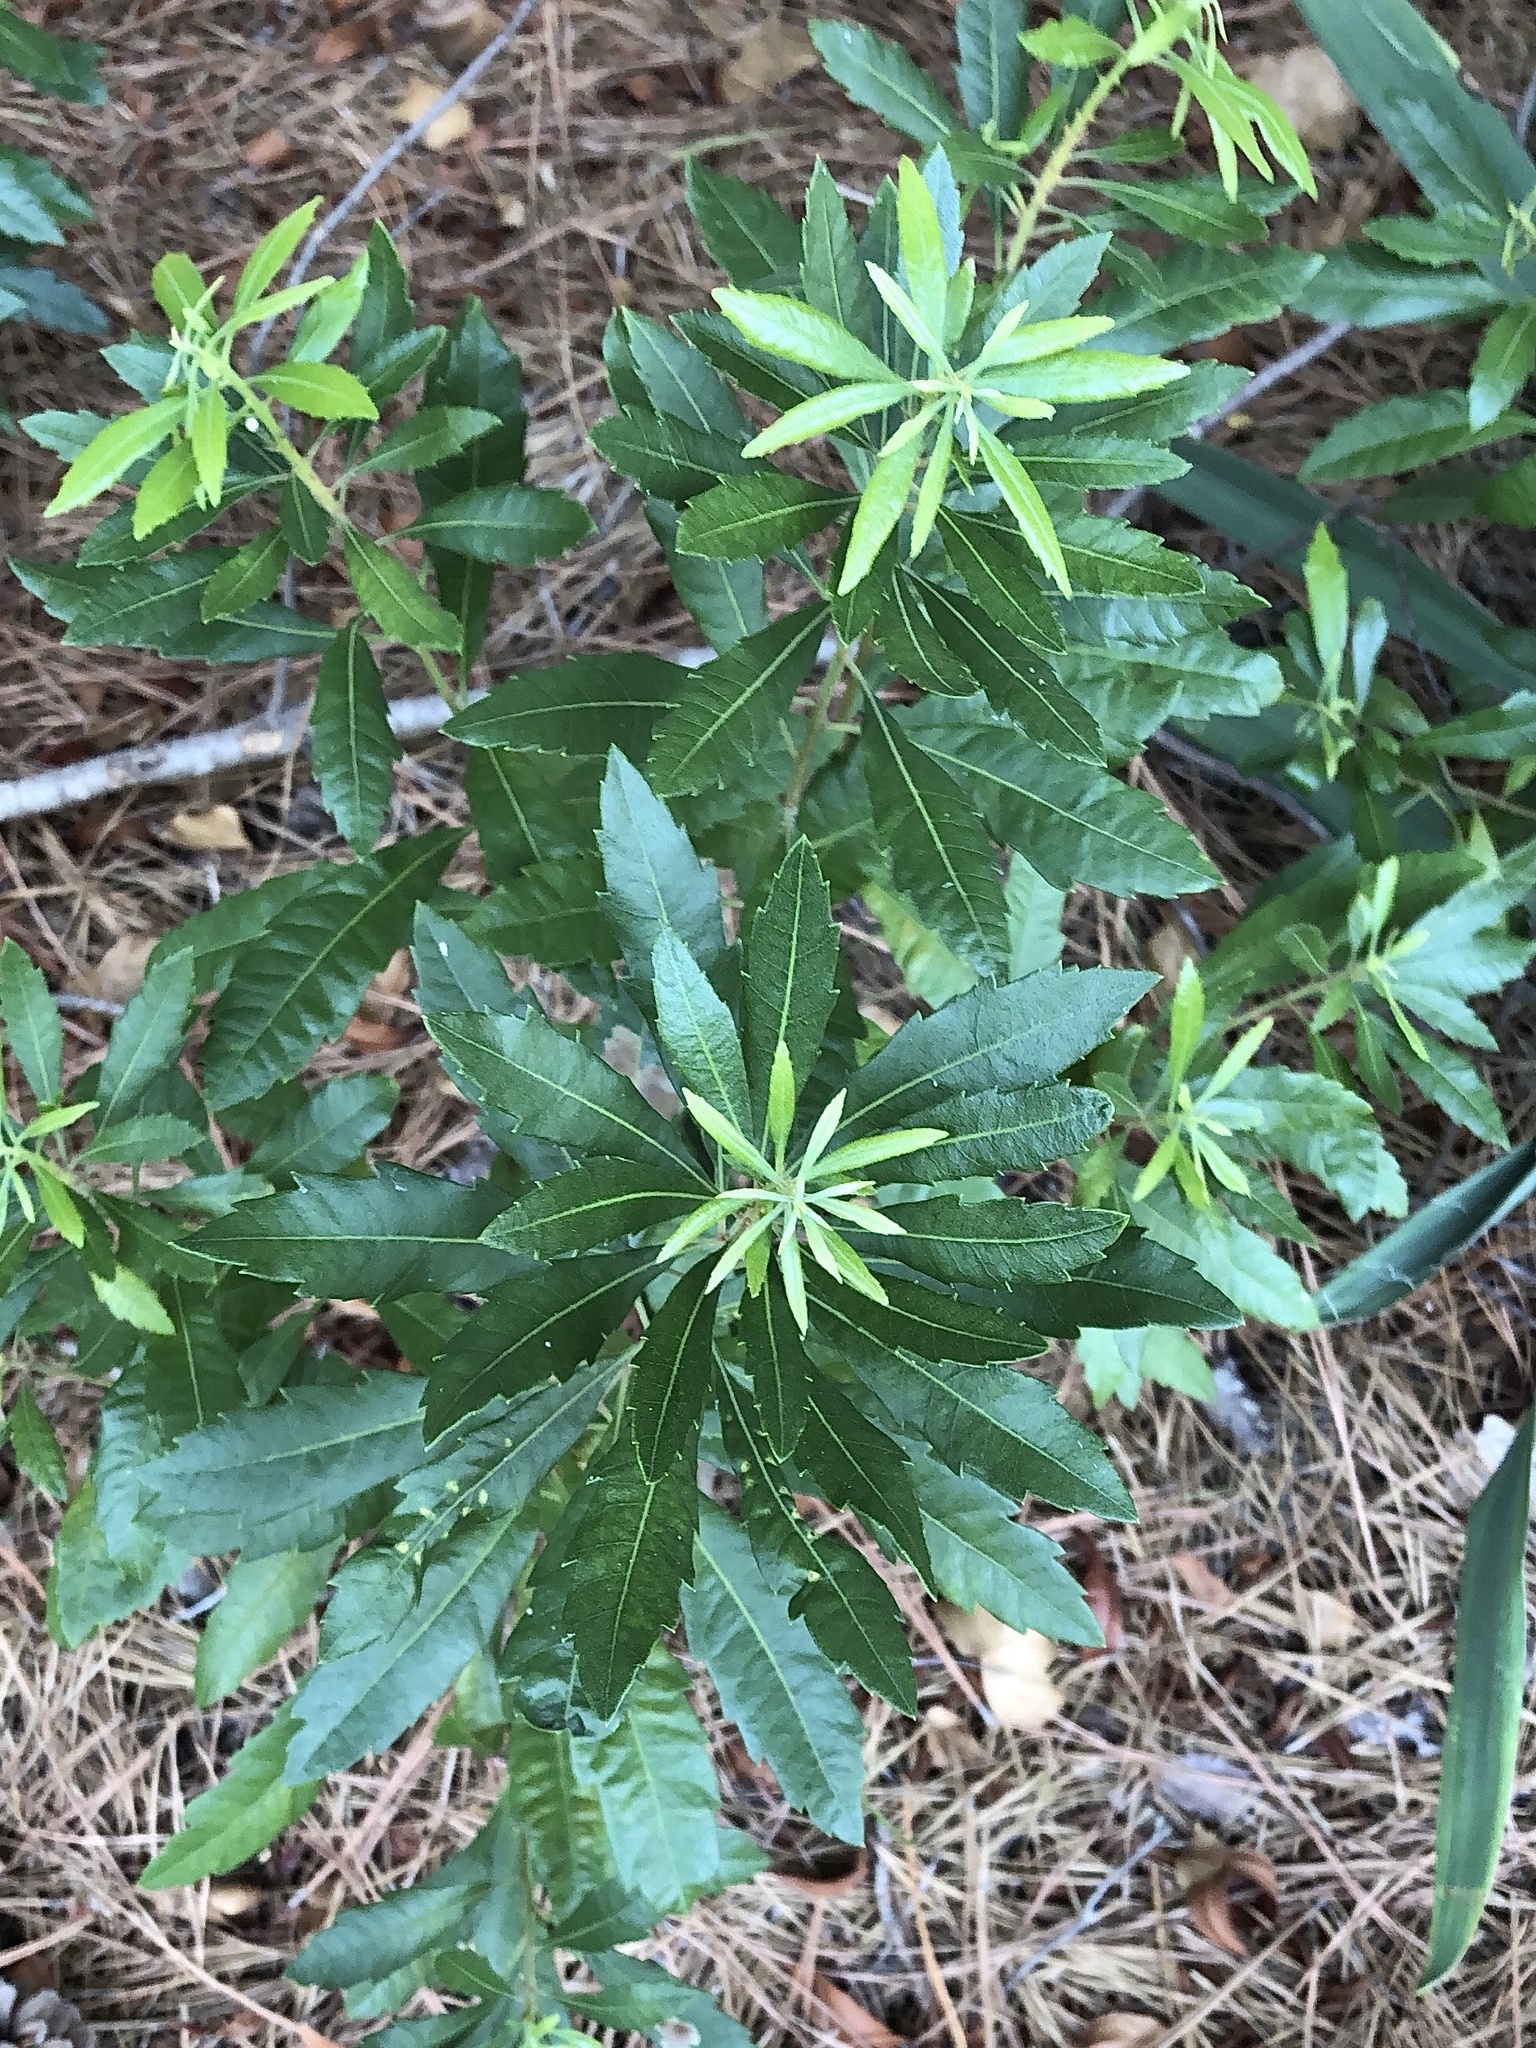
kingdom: Plantae
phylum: Tracheophyta
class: Magnoliopsida
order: Fagales
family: Myricaceae
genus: Morella
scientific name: Morella cerifera
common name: Wax myrtle
